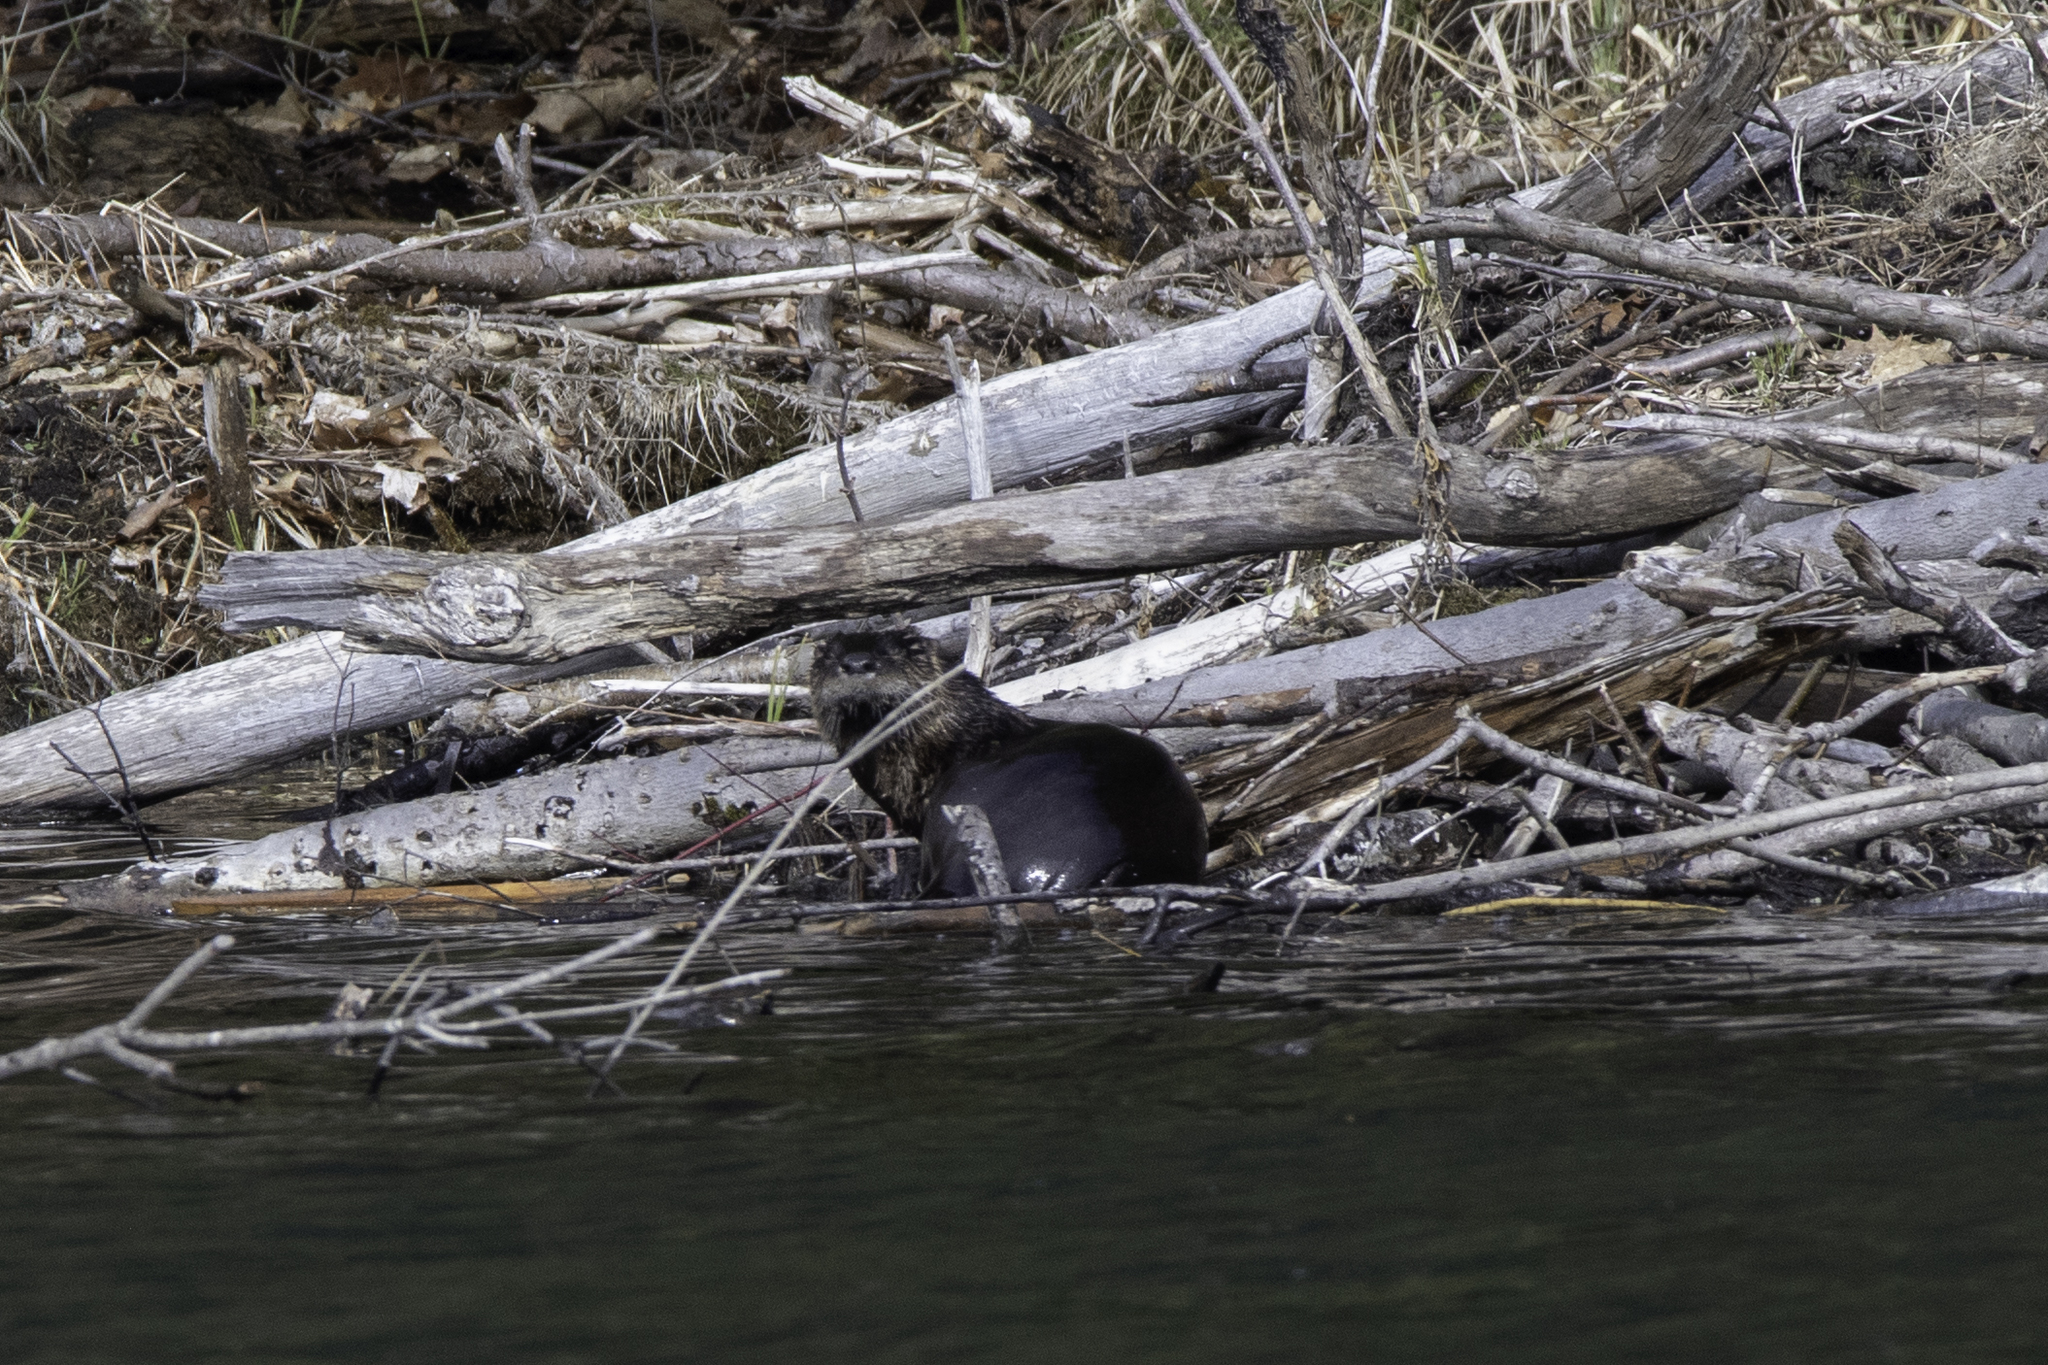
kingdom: Animalia
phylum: Chordata
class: Mammalia
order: Carnivora
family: Mustelidae
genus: Lontra
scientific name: Lontra canadensis
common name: North american river otter
